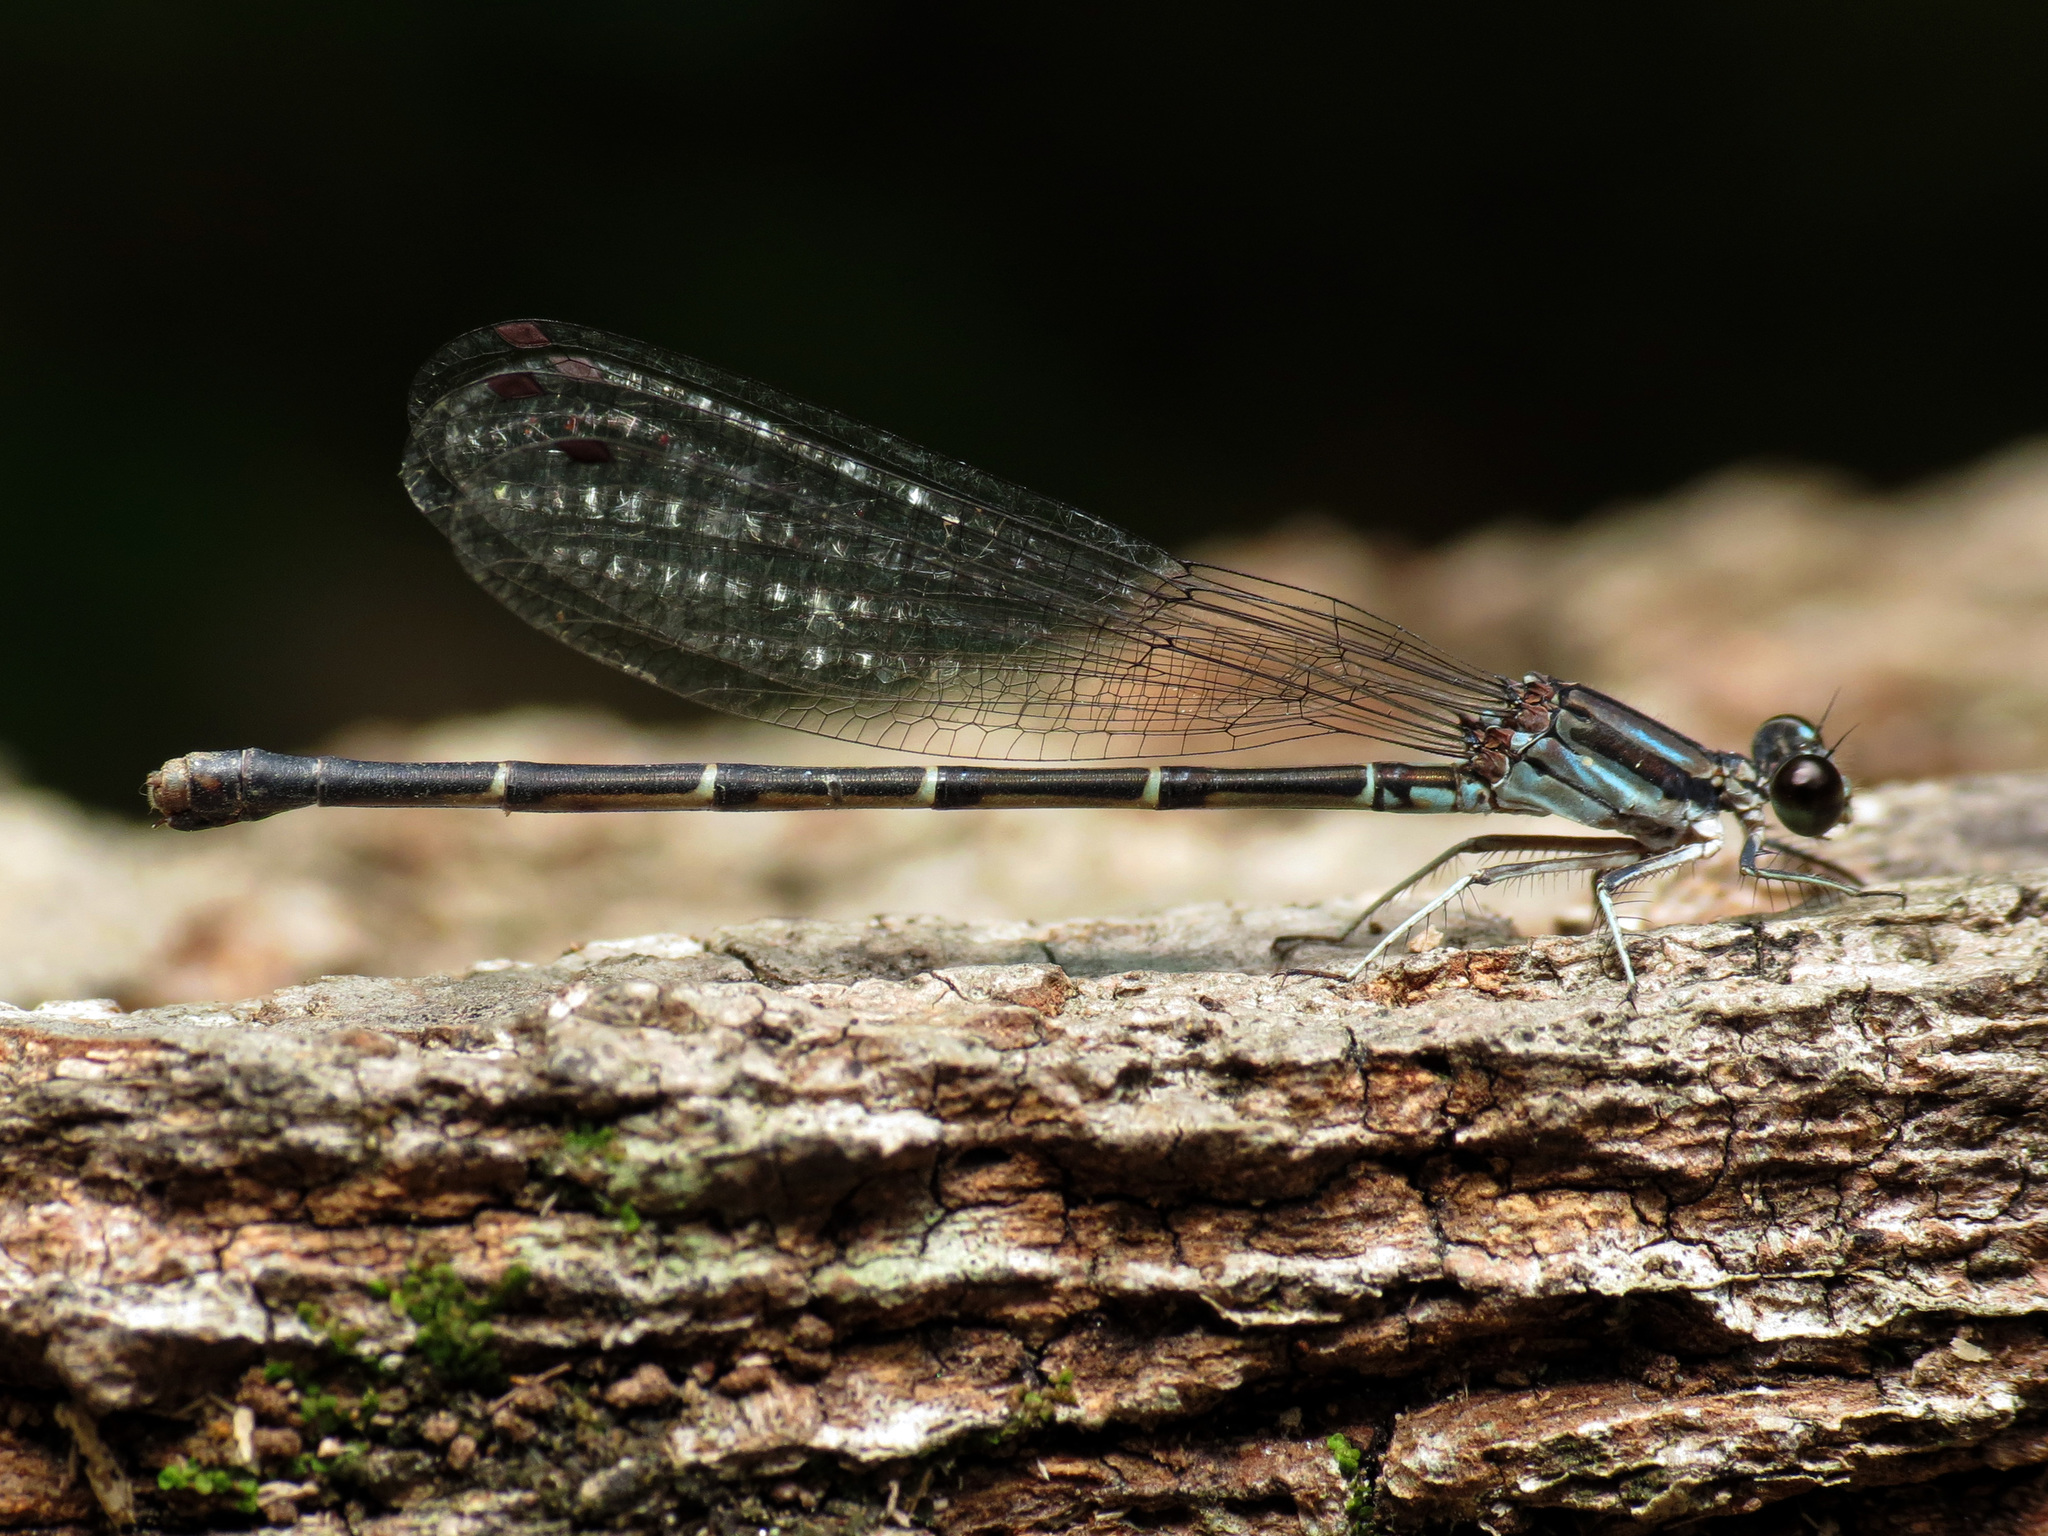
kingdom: Animalia
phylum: Arthropoda
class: Insecta
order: Odonata
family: Coenagrionidae
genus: Argia
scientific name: Argia tibialis
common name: Blue-tipped dancer
